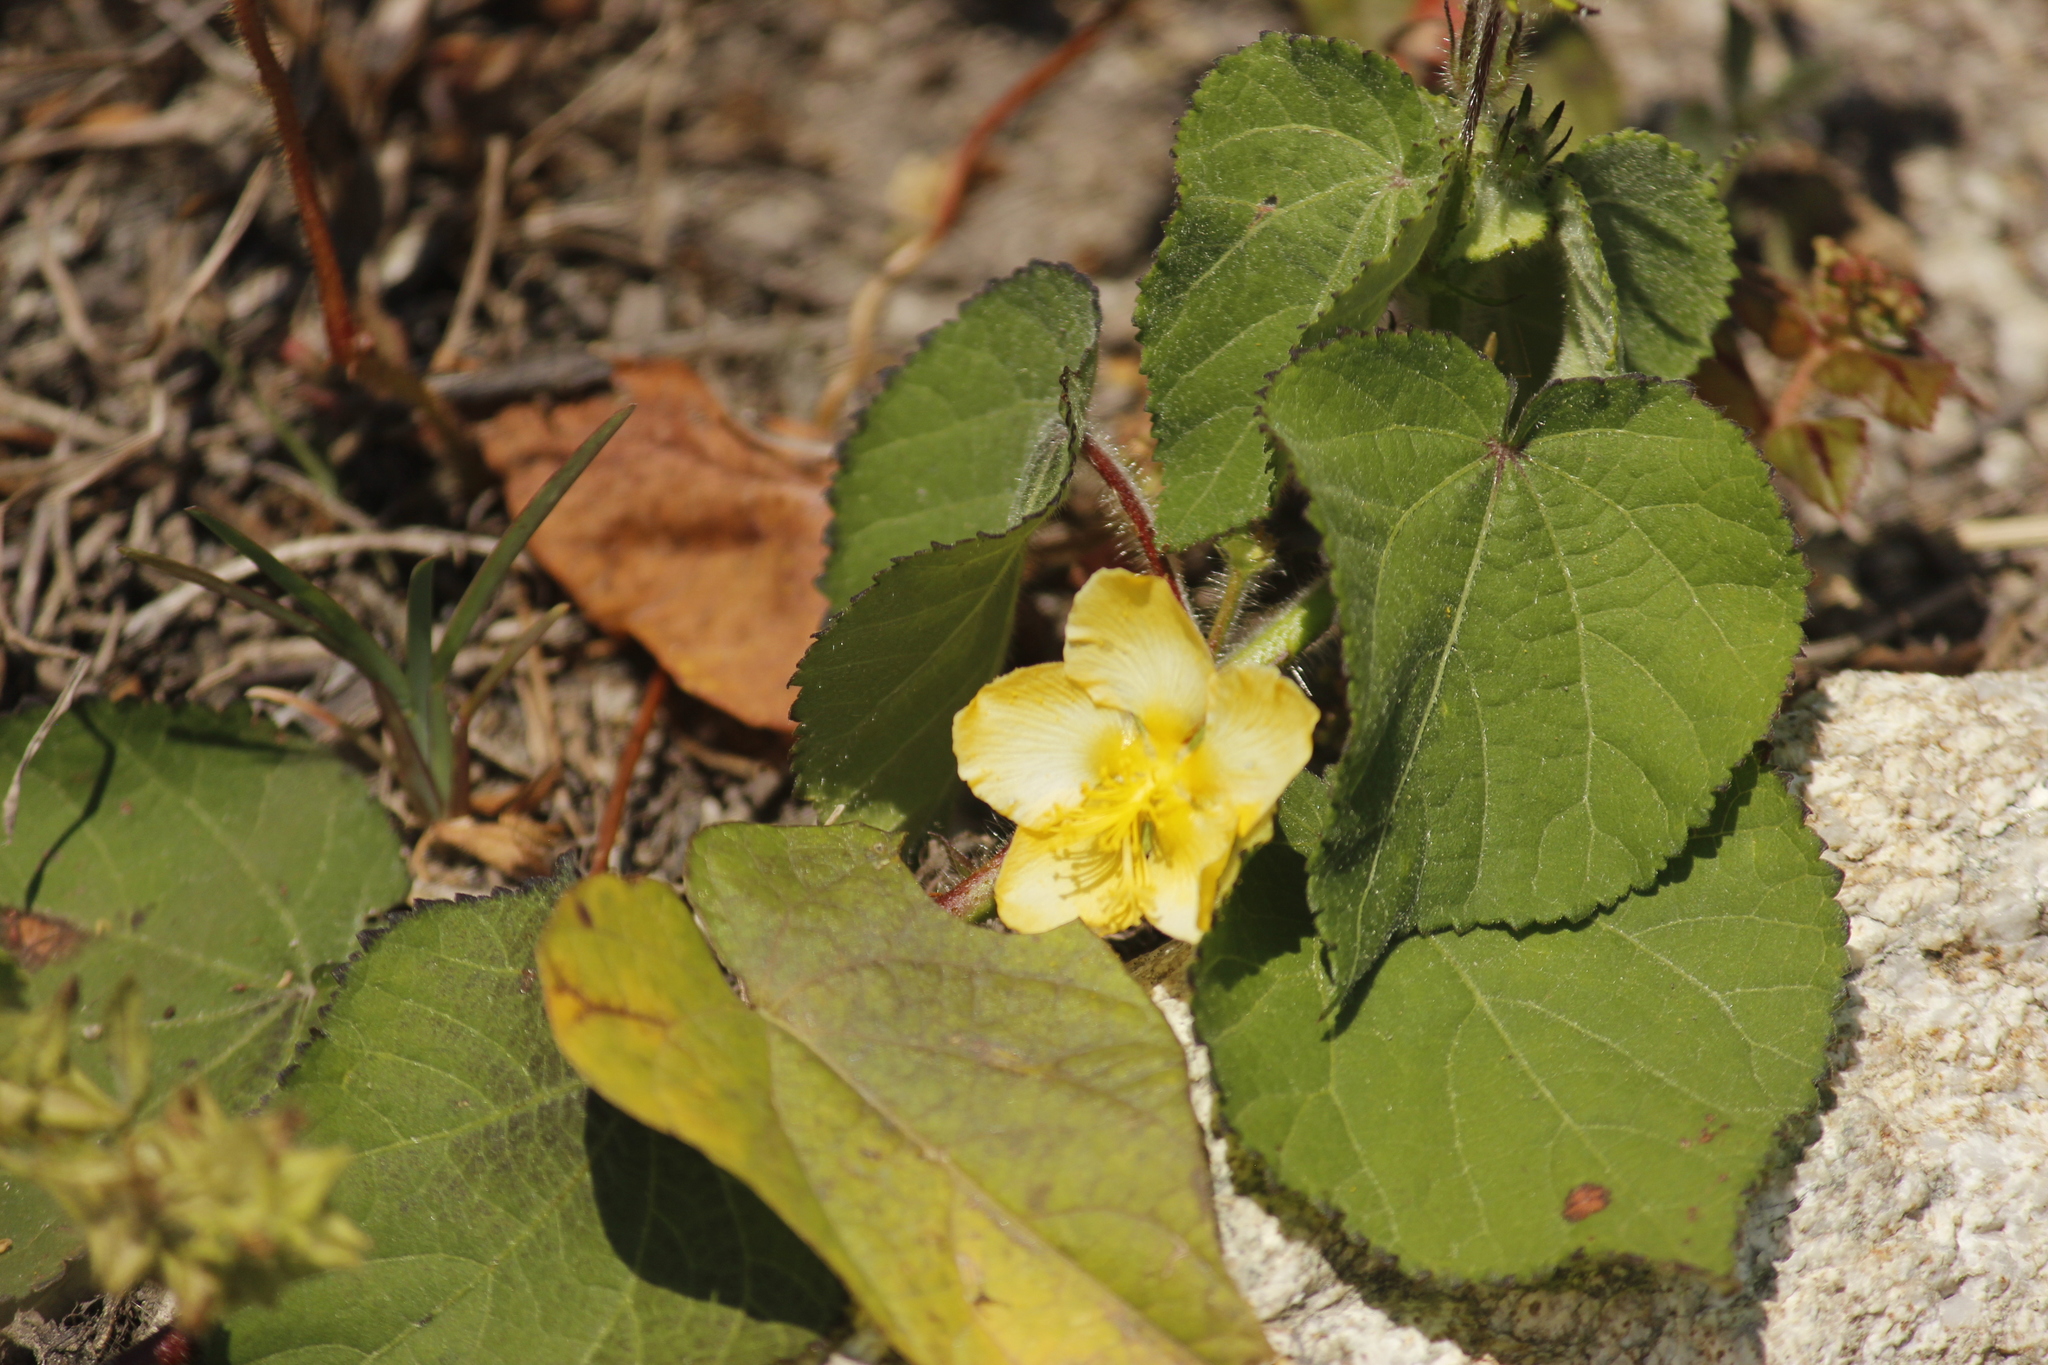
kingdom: Plantae
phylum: Tracheophyta
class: Magnoliopsida
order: Malvales
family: Malvaceae
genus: Abutilon
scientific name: Abutilon bivalve
